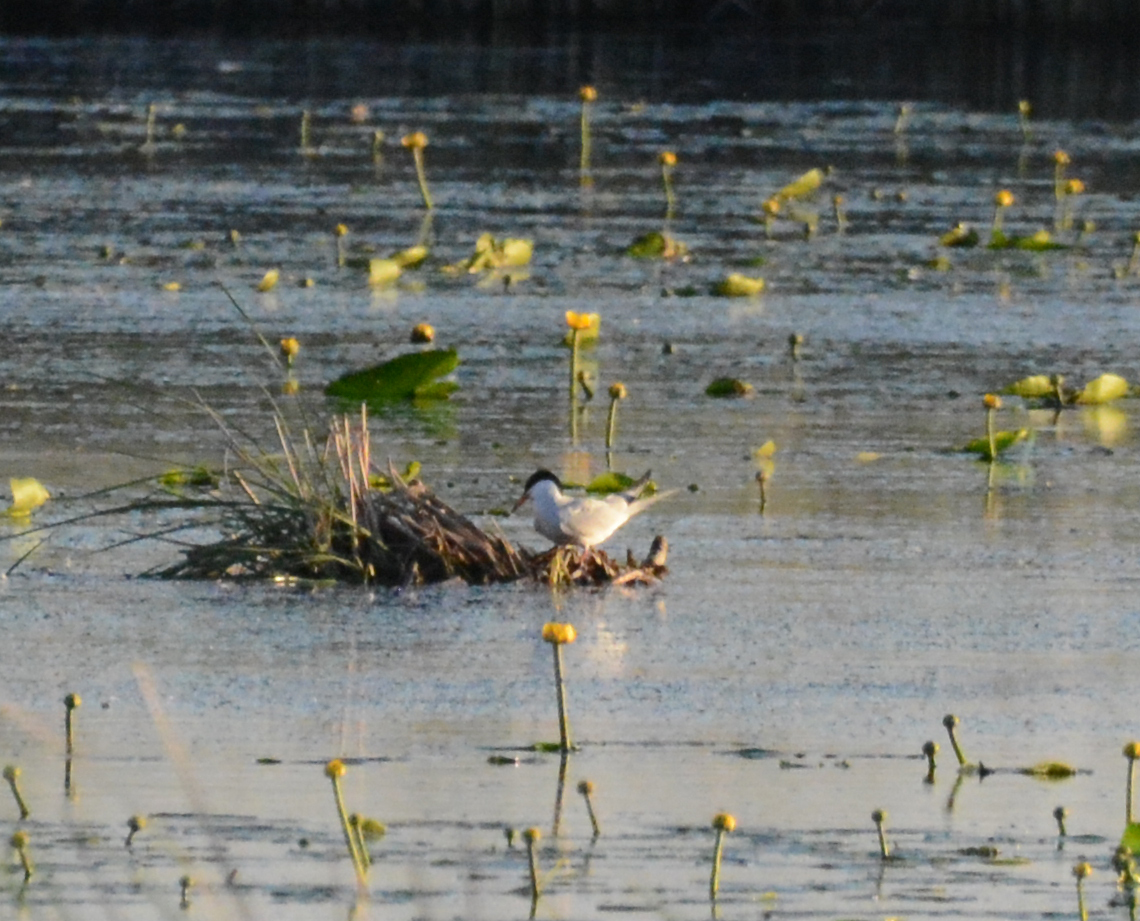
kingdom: Animalia
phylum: Chordata
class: Aves
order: Charadriiformes
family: Laridae
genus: Sterna
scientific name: Sterna hirundo
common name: Common tern
